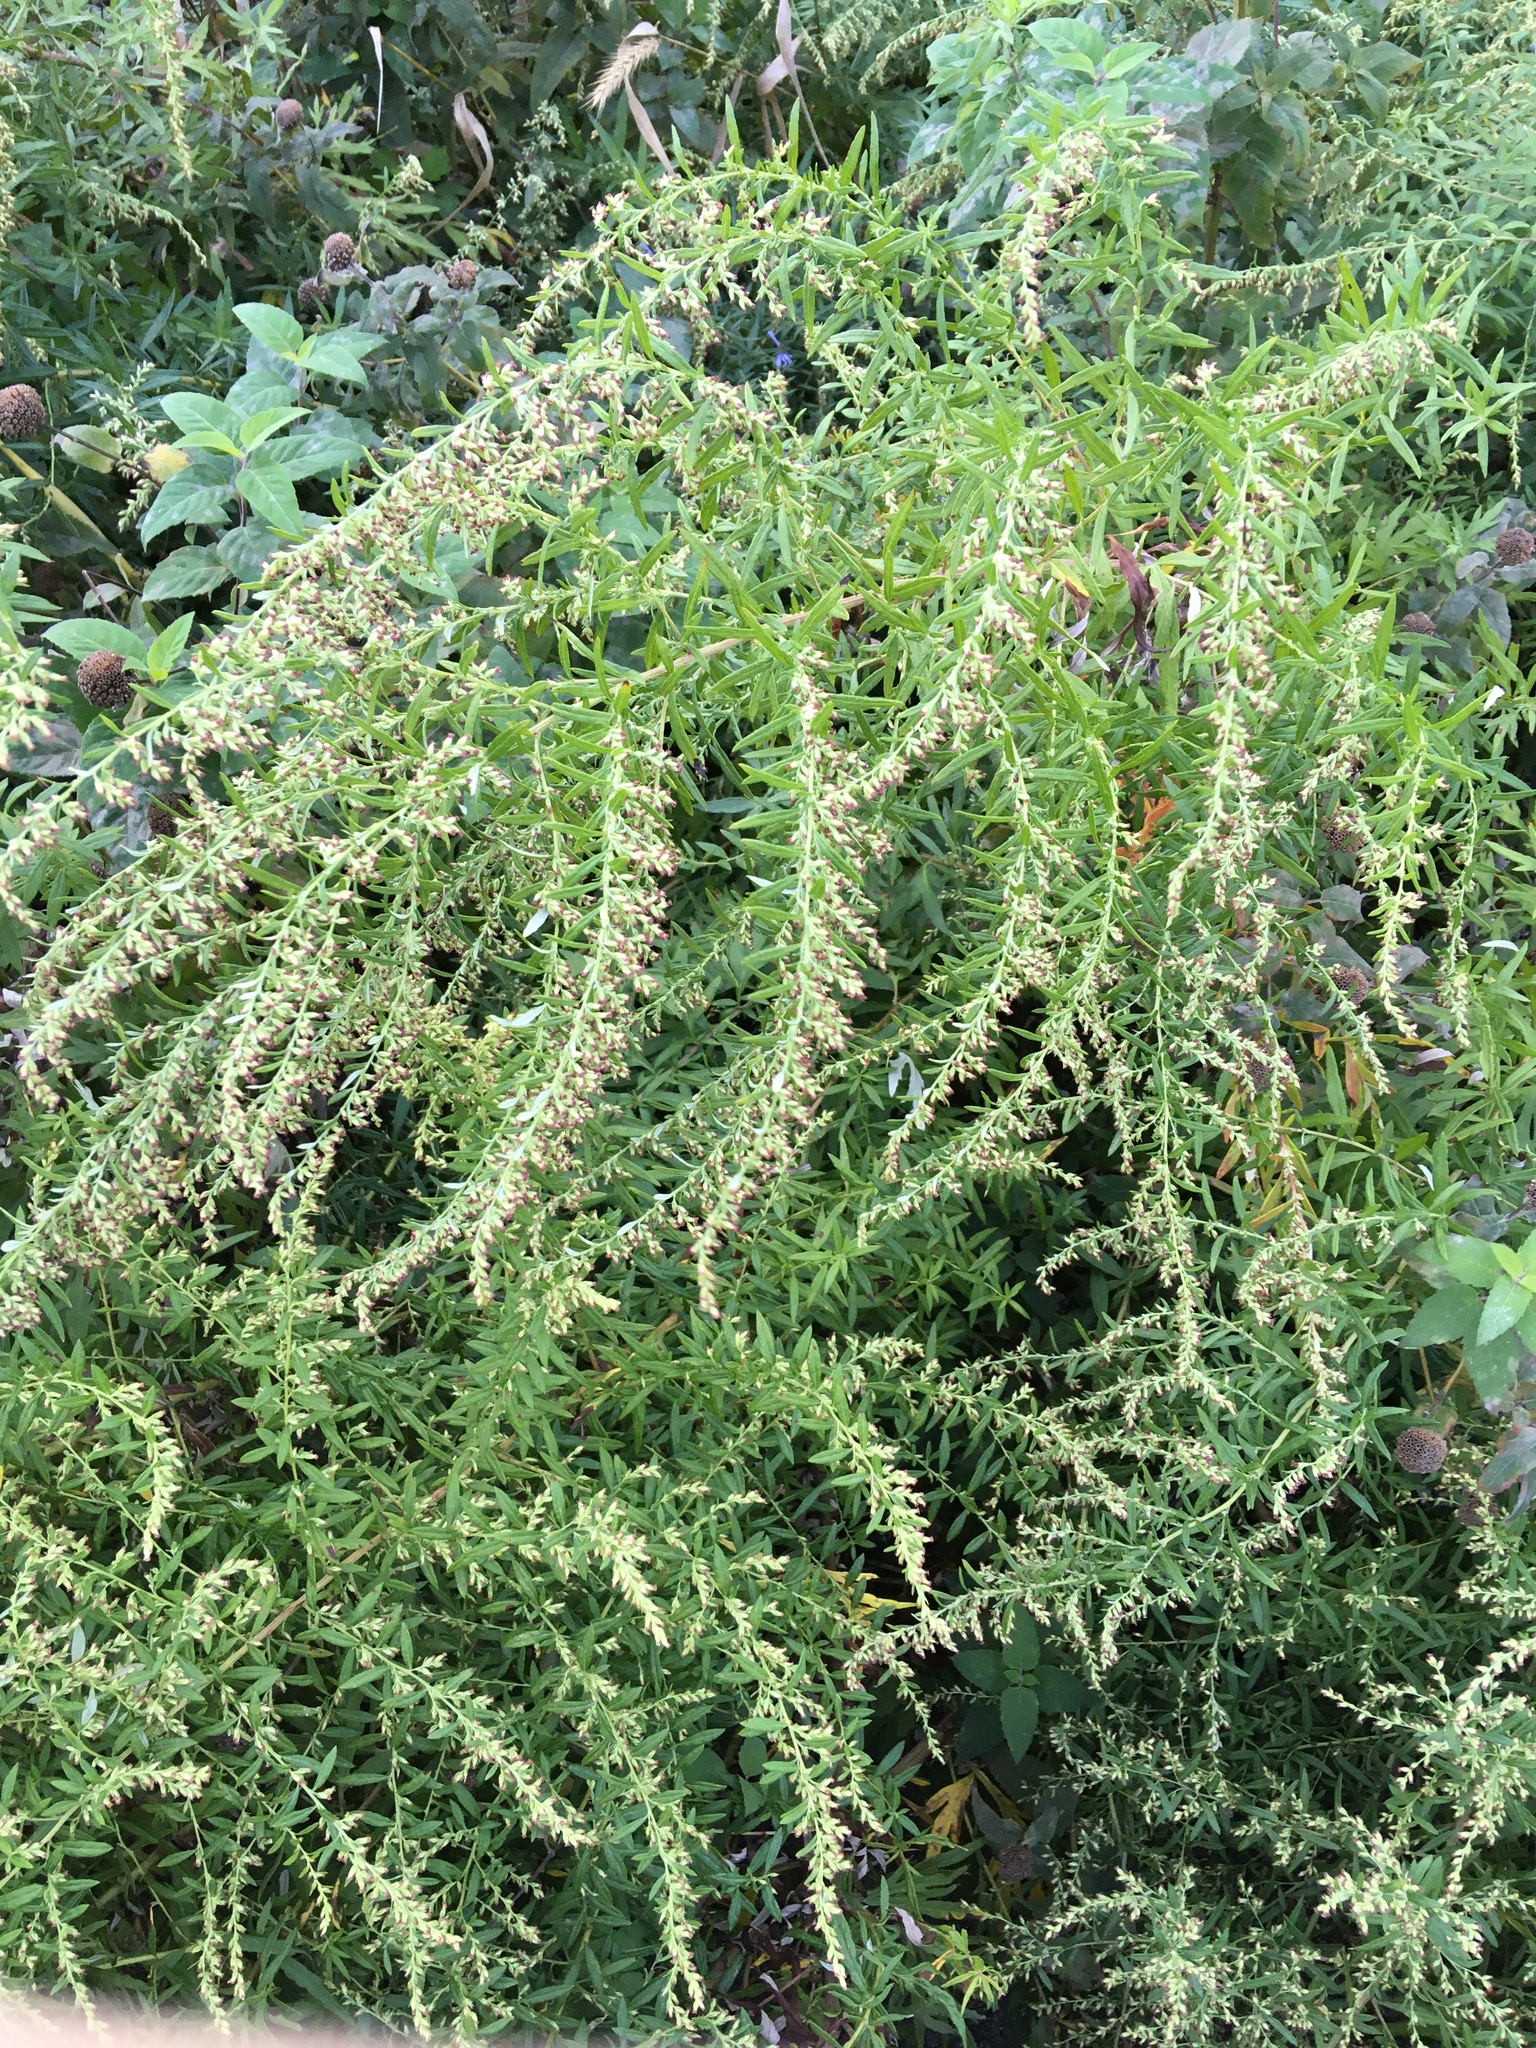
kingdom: Plantae
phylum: Tracheophyta
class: Magnoliopsida
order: Asterales
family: Asteraceae
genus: Artemisia
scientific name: Artemisia vulgaris
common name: Mugwort
